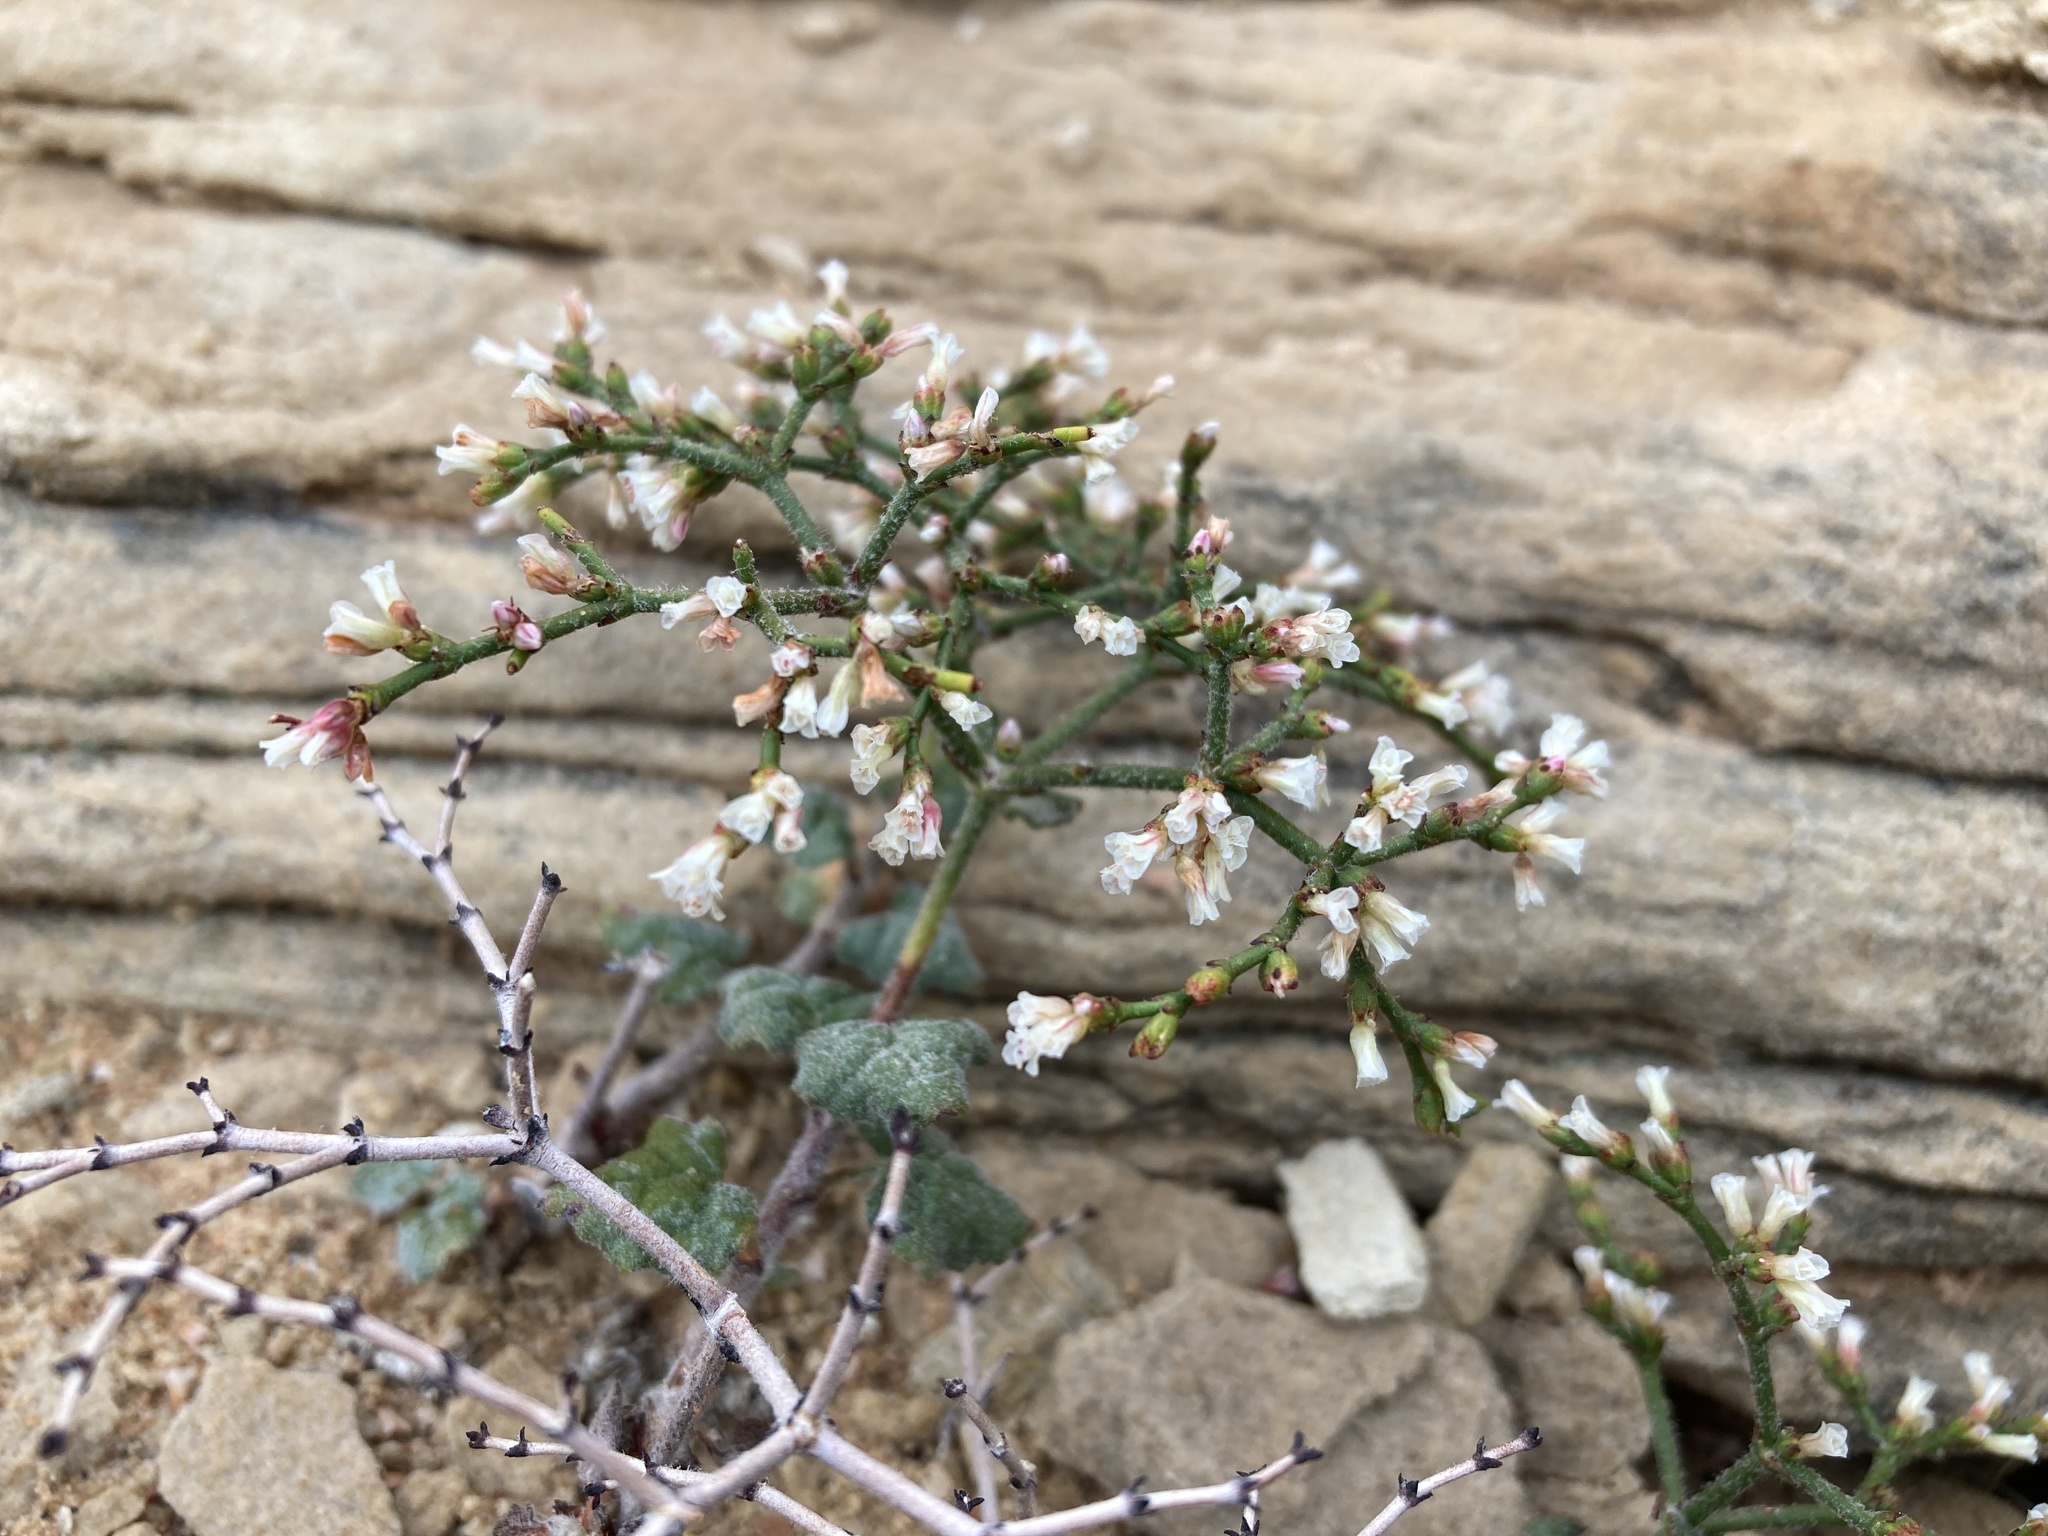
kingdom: Plantae
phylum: Tracheophyta
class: Magnoliopsida
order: Caryophyllales
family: Polygonaceae
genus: Eriogonum
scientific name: Eriogonum corymbosum
